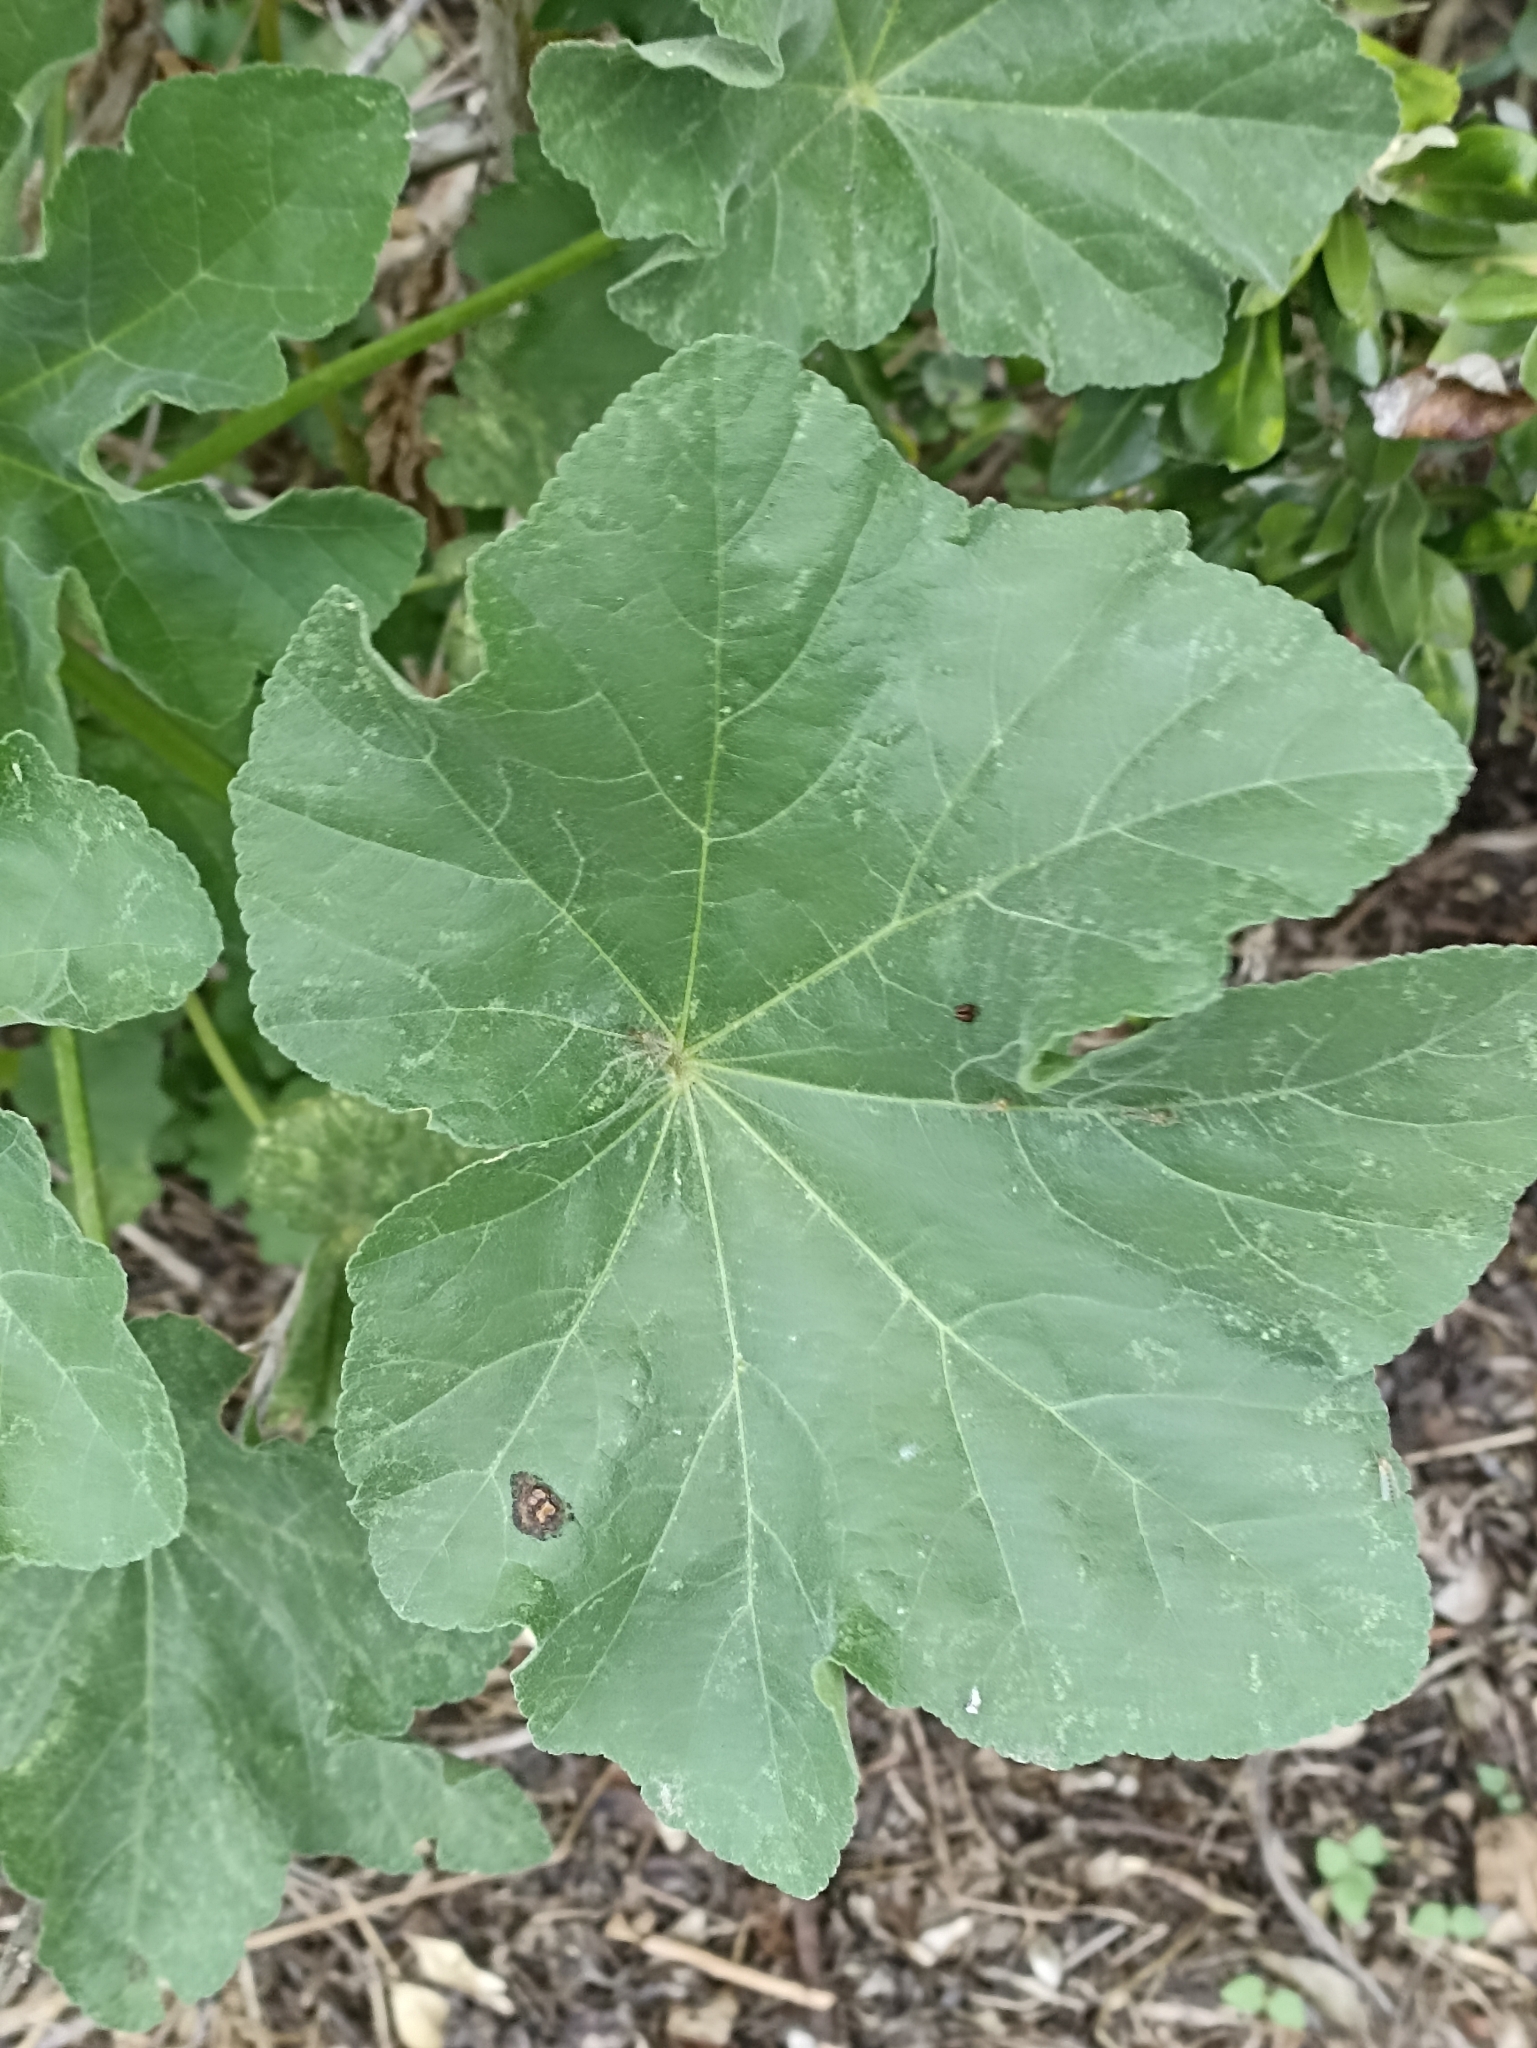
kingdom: Plantae
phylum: Tracheophyta
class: Magnoliopsida
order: Malvales
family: Malvaceae
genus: Malva
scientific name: Malva arborea
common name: Tree mallow
